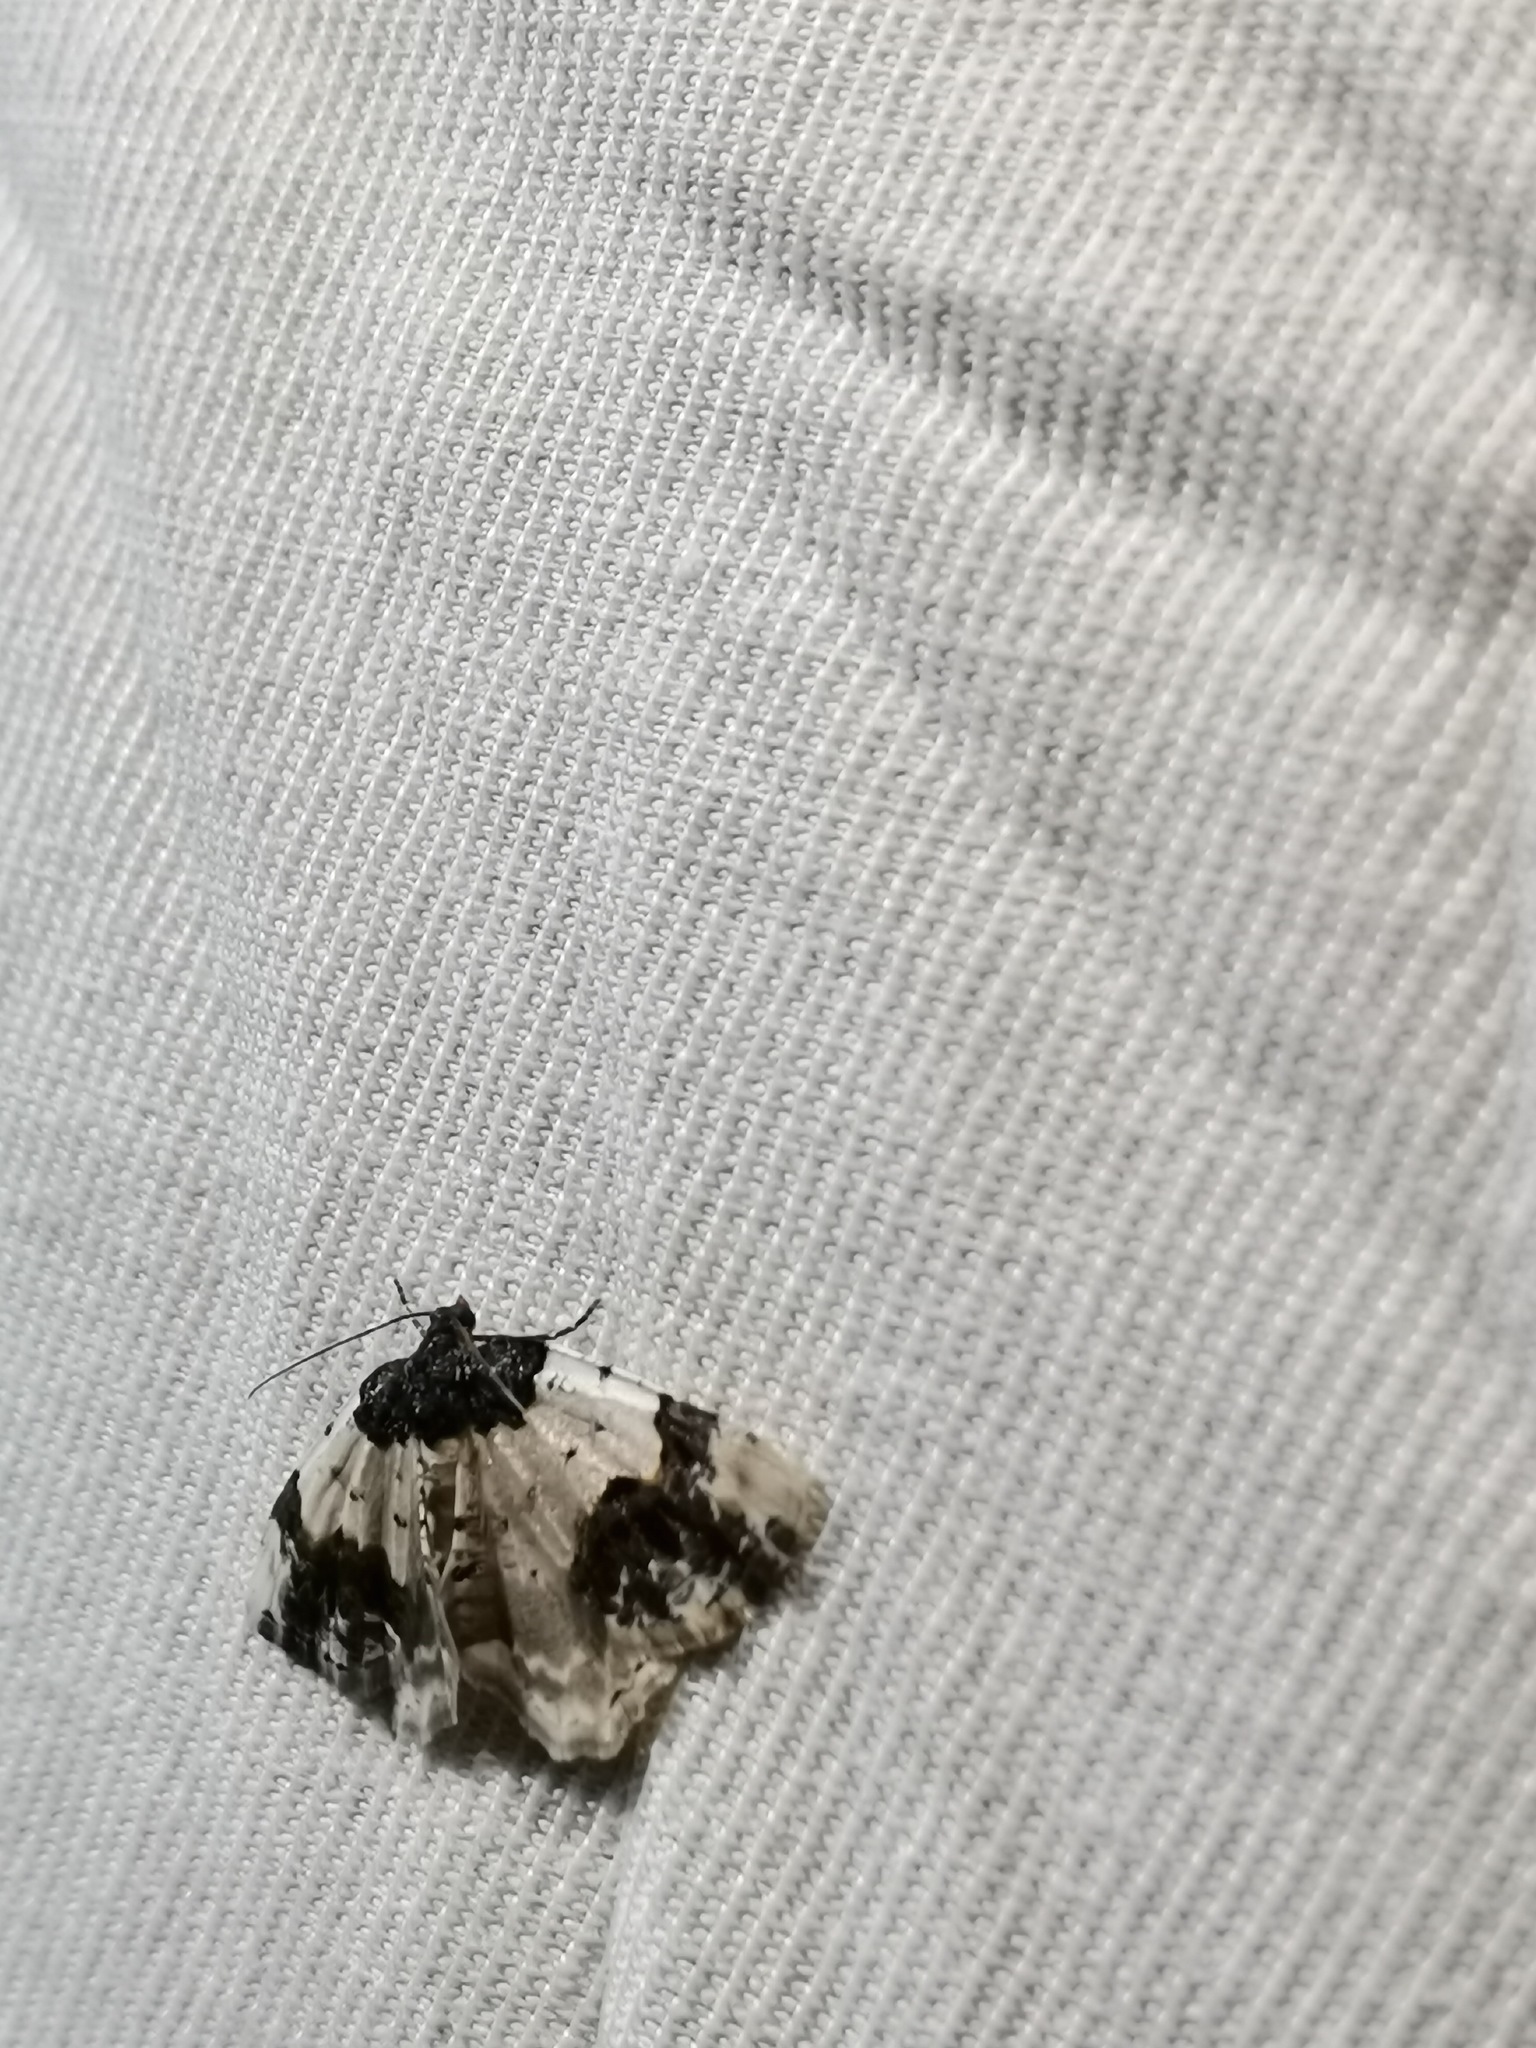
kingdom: Animalia
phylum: Arthropoda
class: Insecta
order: Lepidoptera
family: Geometridae
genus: Ligdia
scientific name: Ligdia adustata
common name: Scorched carpet
